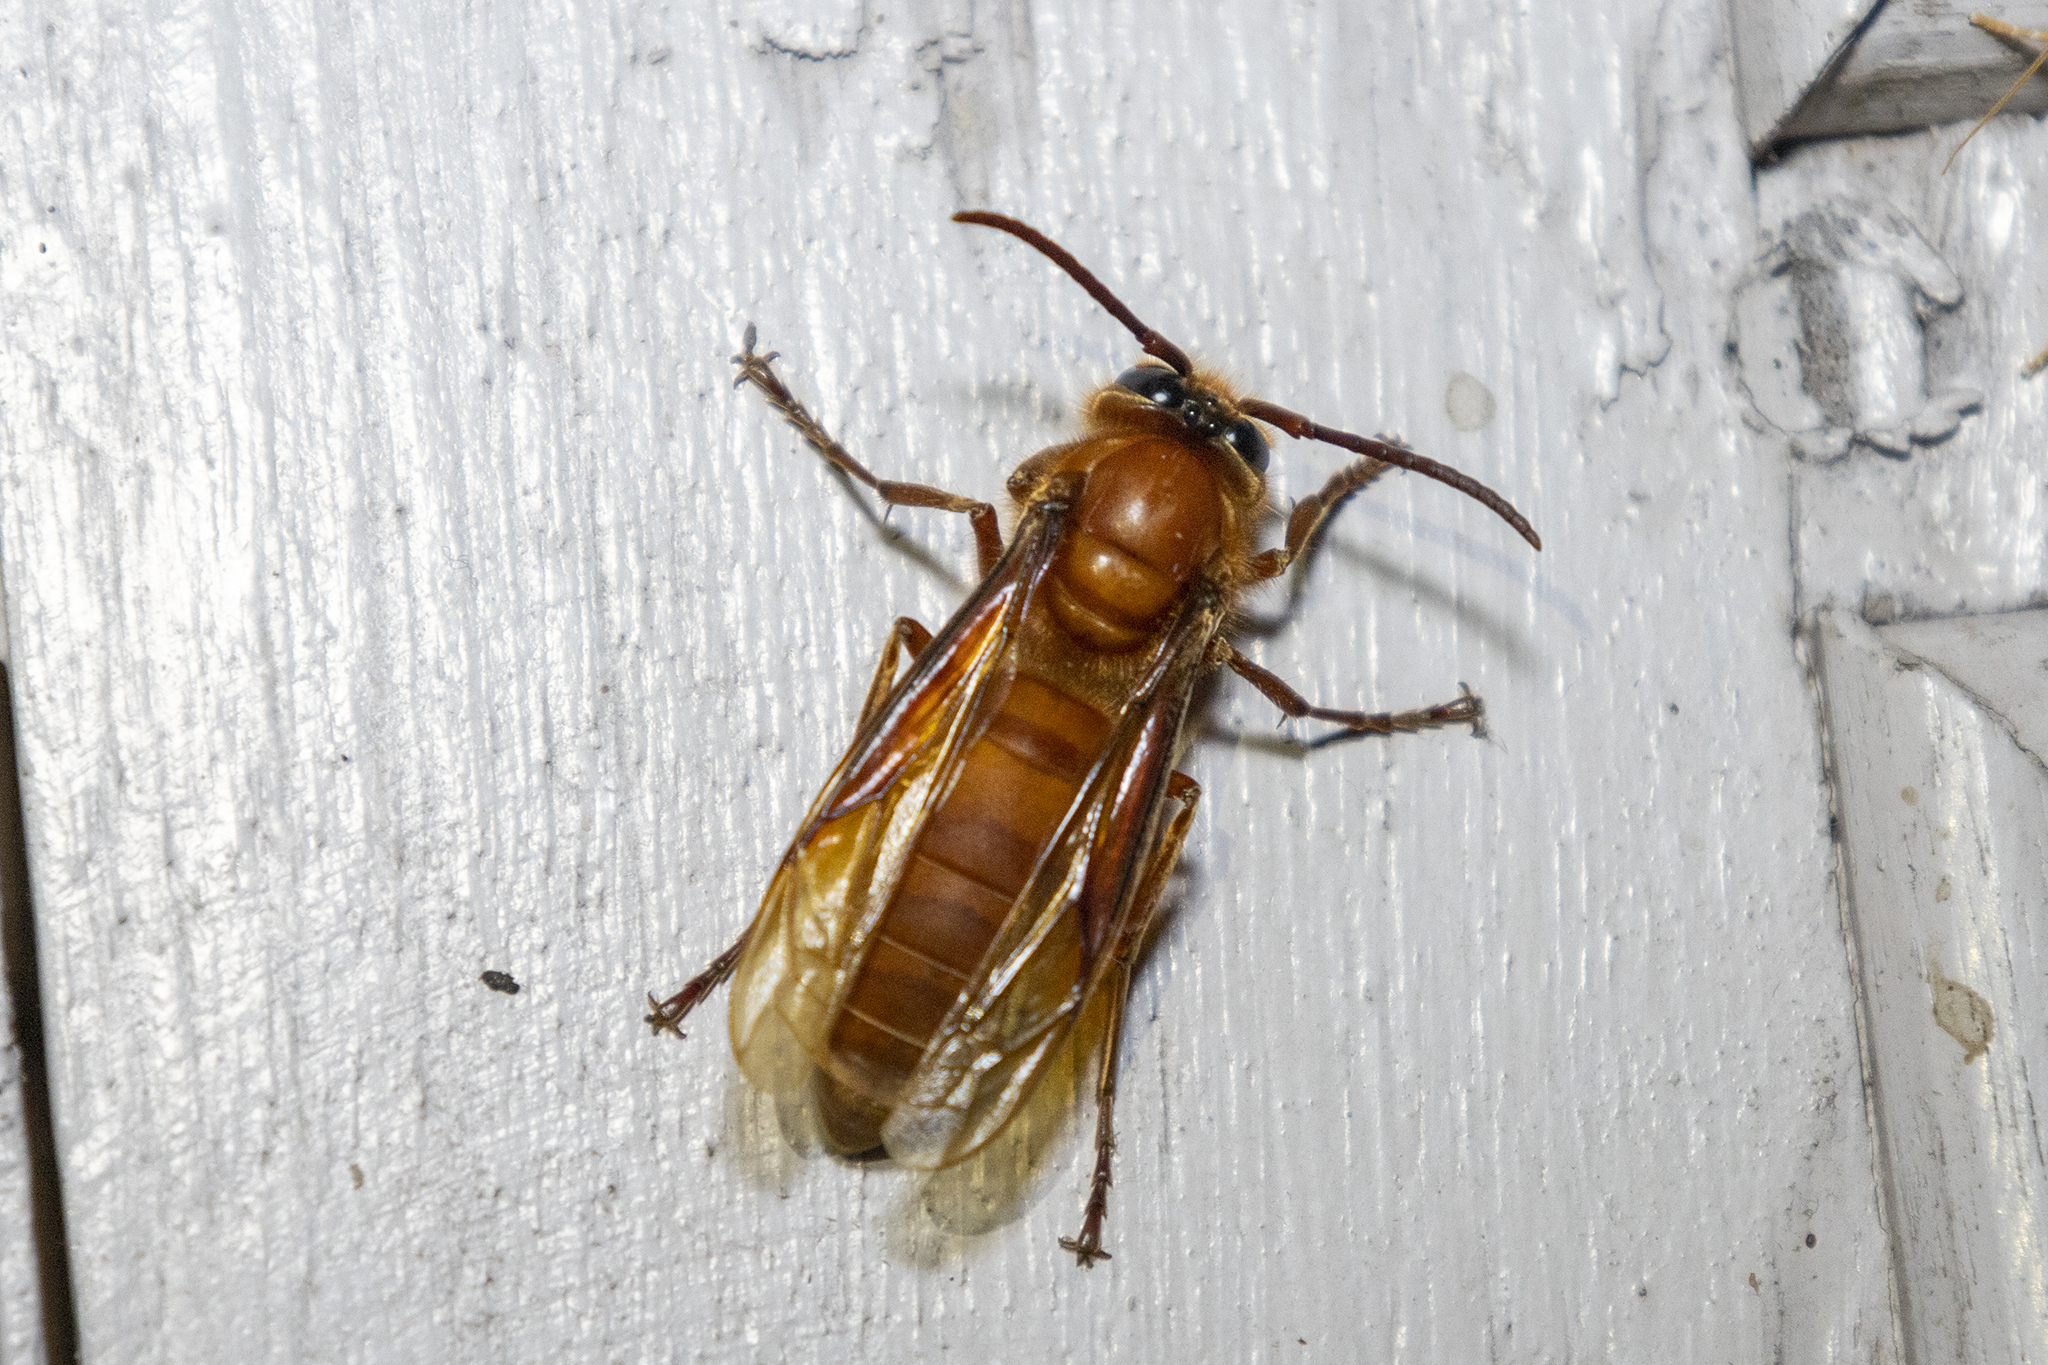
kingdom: Animalia
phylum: Arthropoda
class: Insecta
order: Hymenoptera
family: Vespidae
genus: Provespa
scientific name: Provespa barthelemyi
